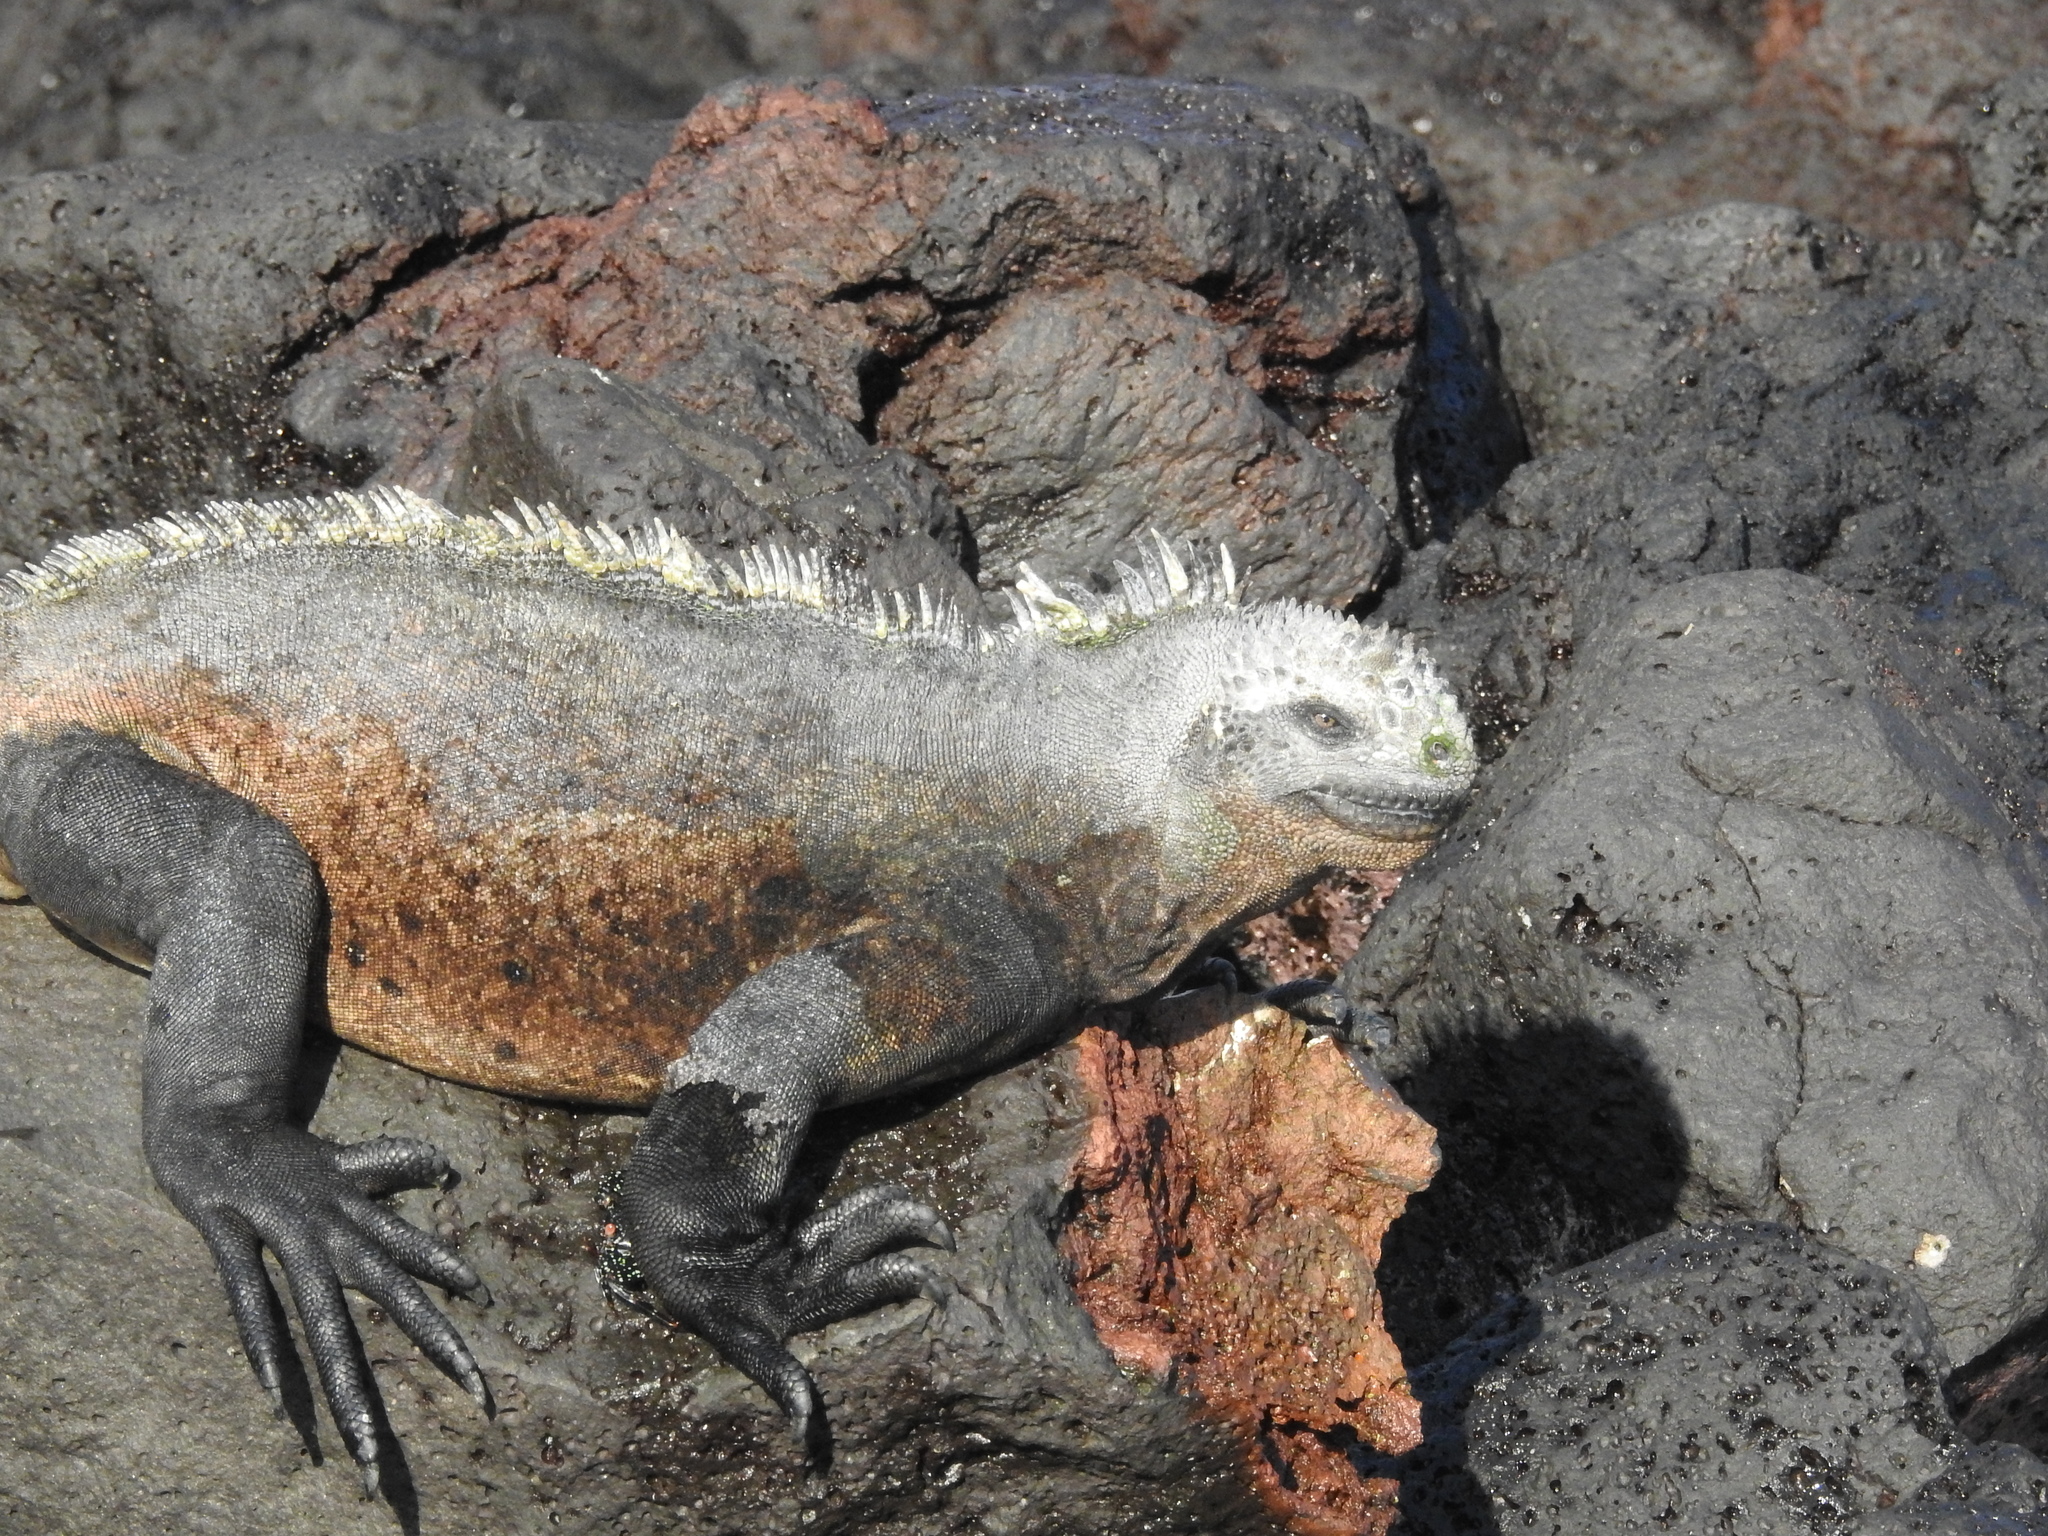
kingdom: Animalia
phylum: Chordata
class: Squamata
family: Iguanidae
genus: Amblyrhynchus
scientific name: Amblyrhynchus cristatus
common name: Marine iguana
